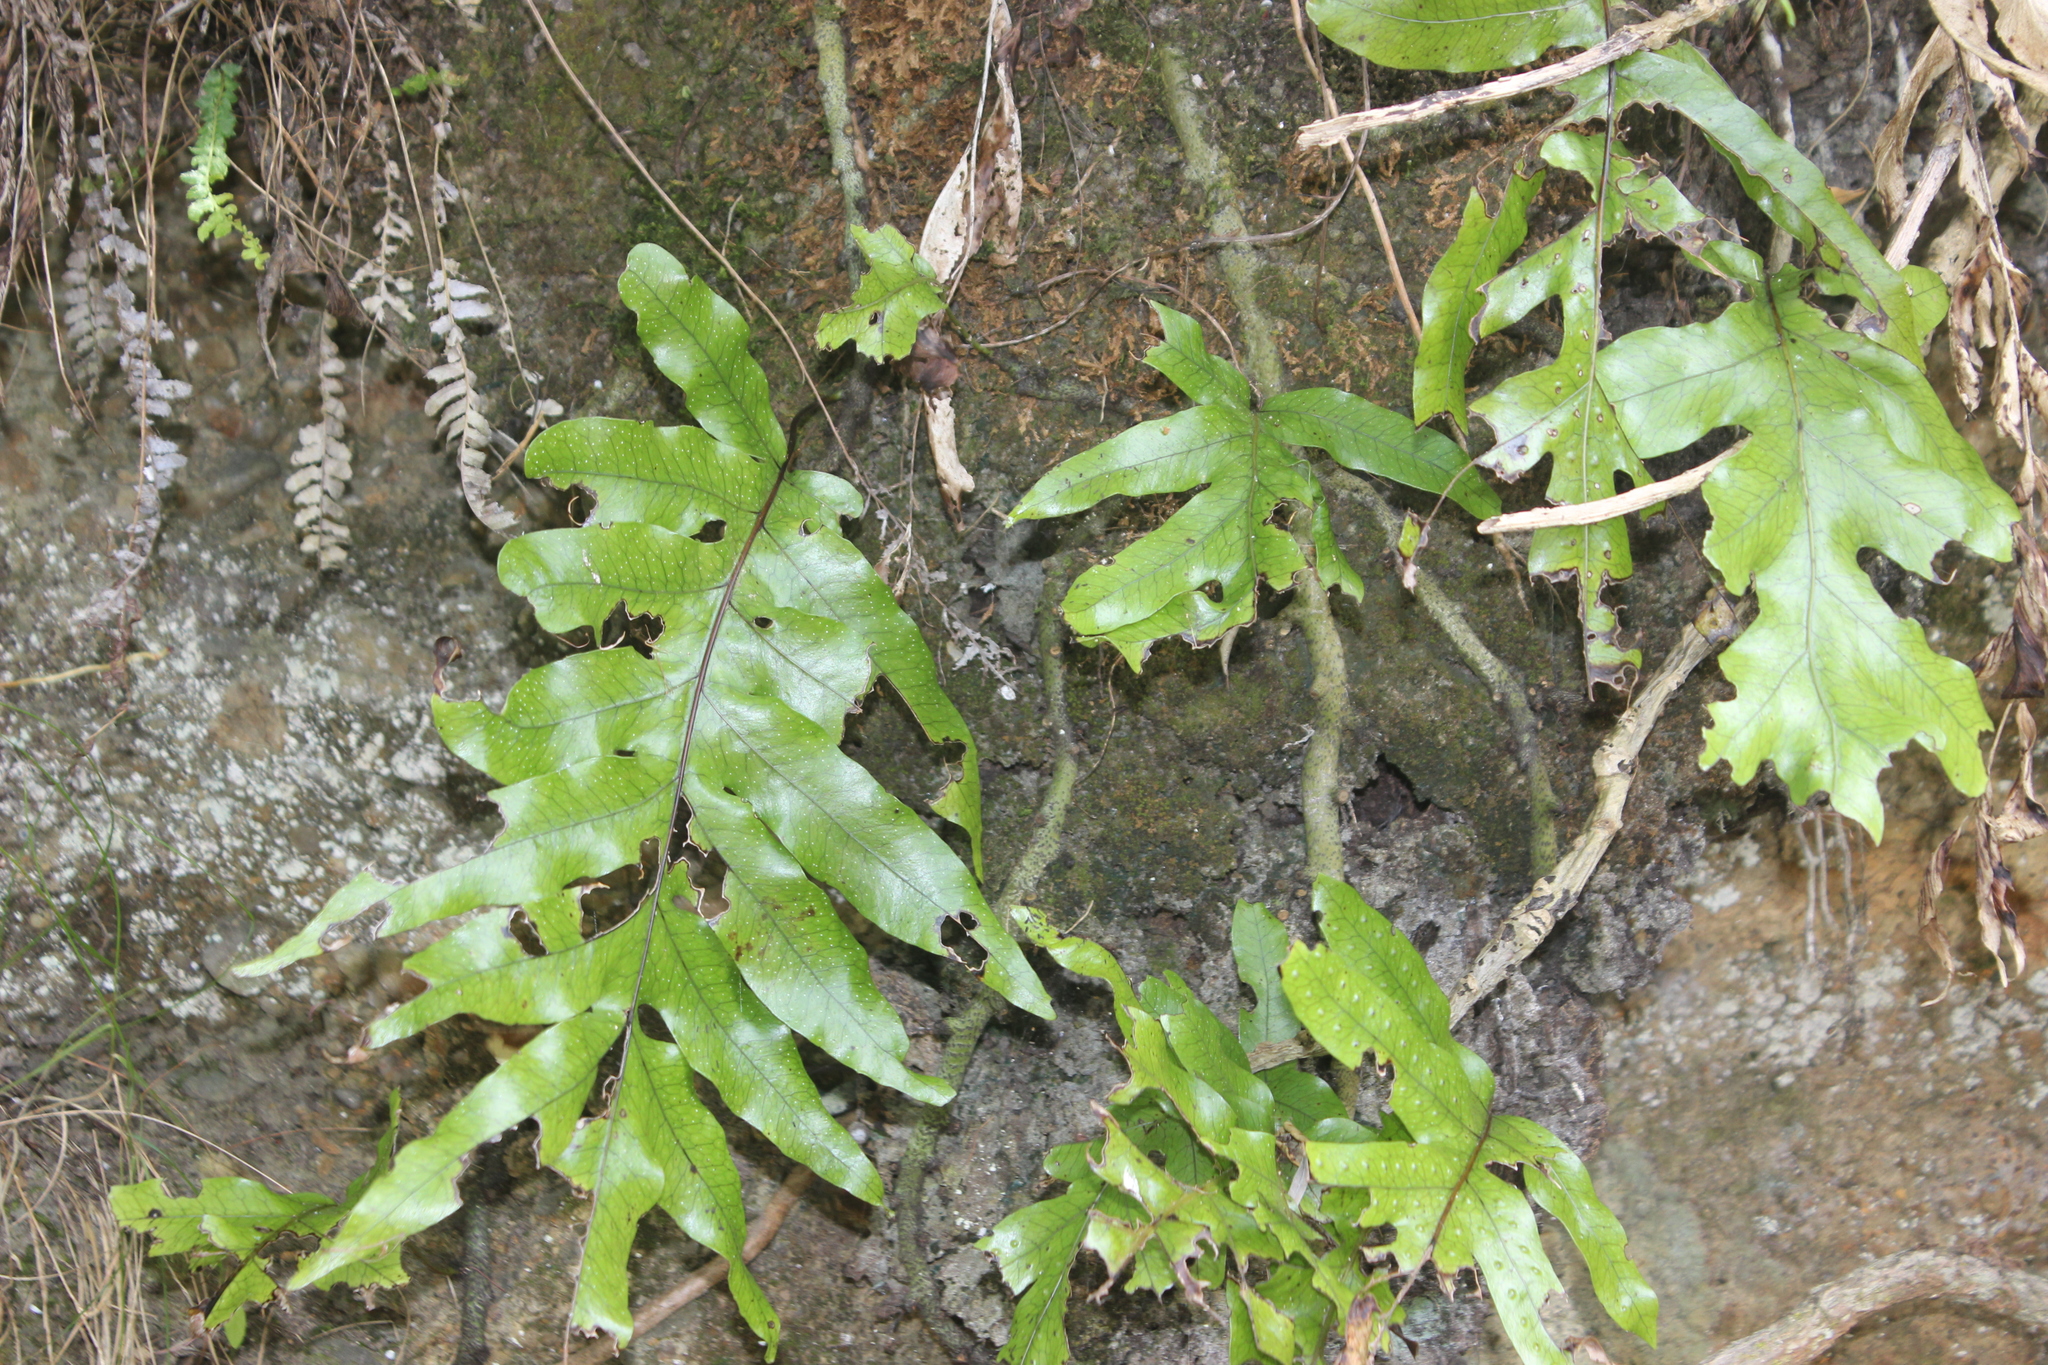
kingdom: Plantae
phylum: Tracheophyta
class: Polypodiopsida
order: Polypodiales
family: Polypodiaceae
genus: Lecanopteris
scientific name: Lecanopteris pustulata
